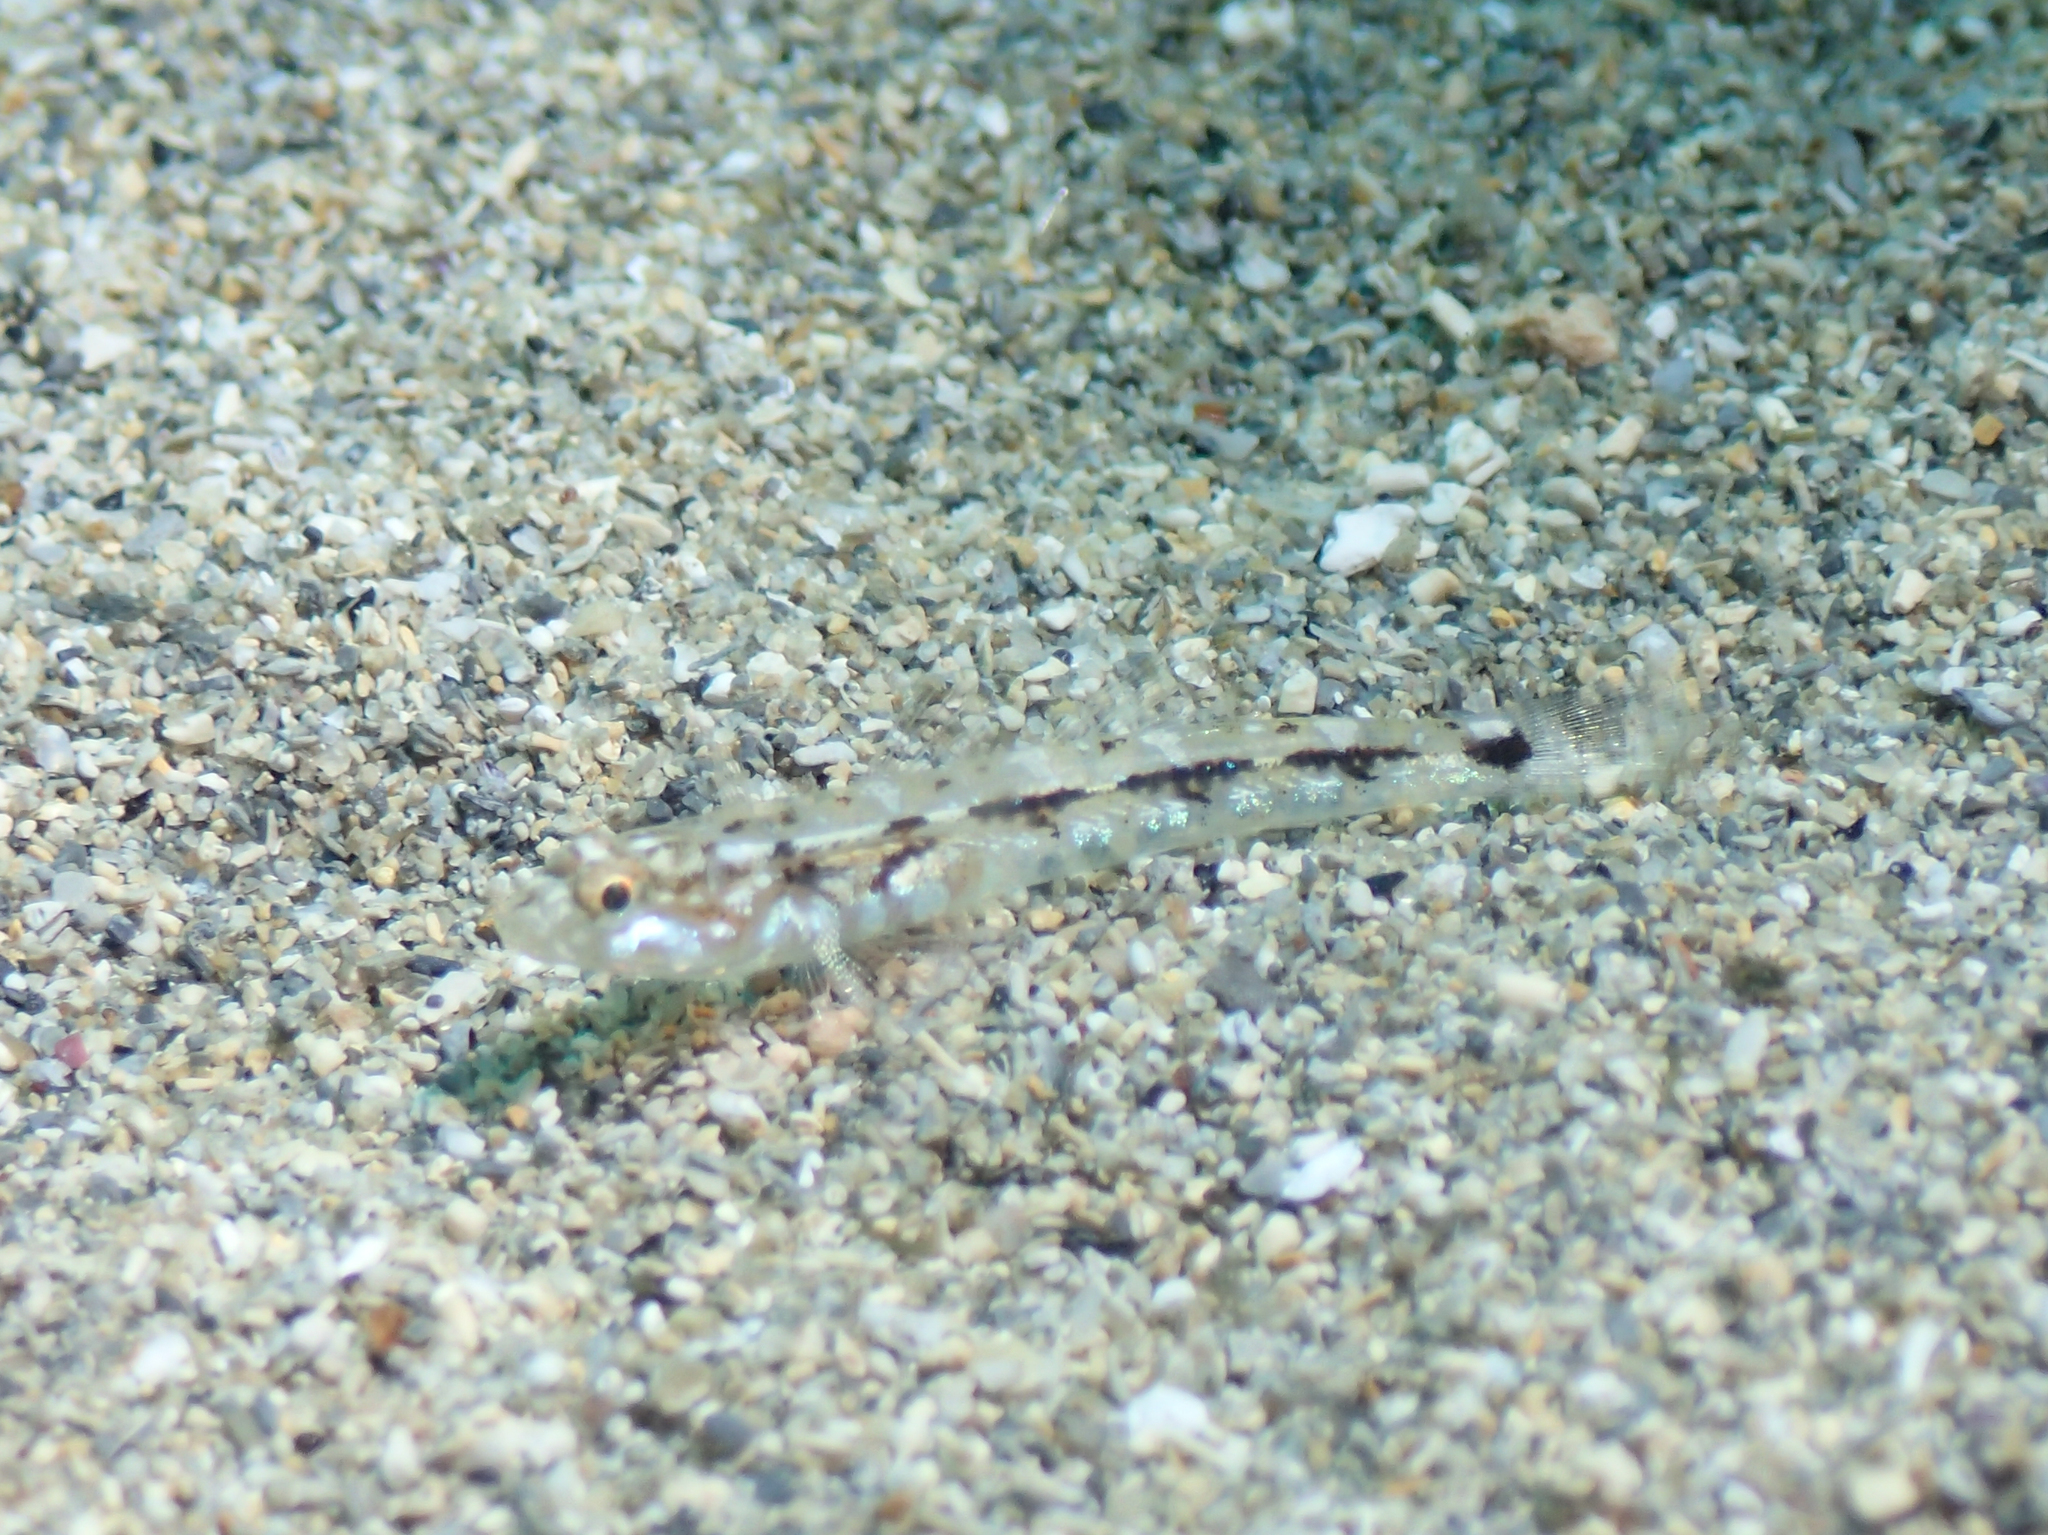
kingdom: Animalia
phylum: Chordata
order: Perciformes
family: Gobiidae
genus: Pomatoschistus
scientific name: Pomatoschistus bathi
